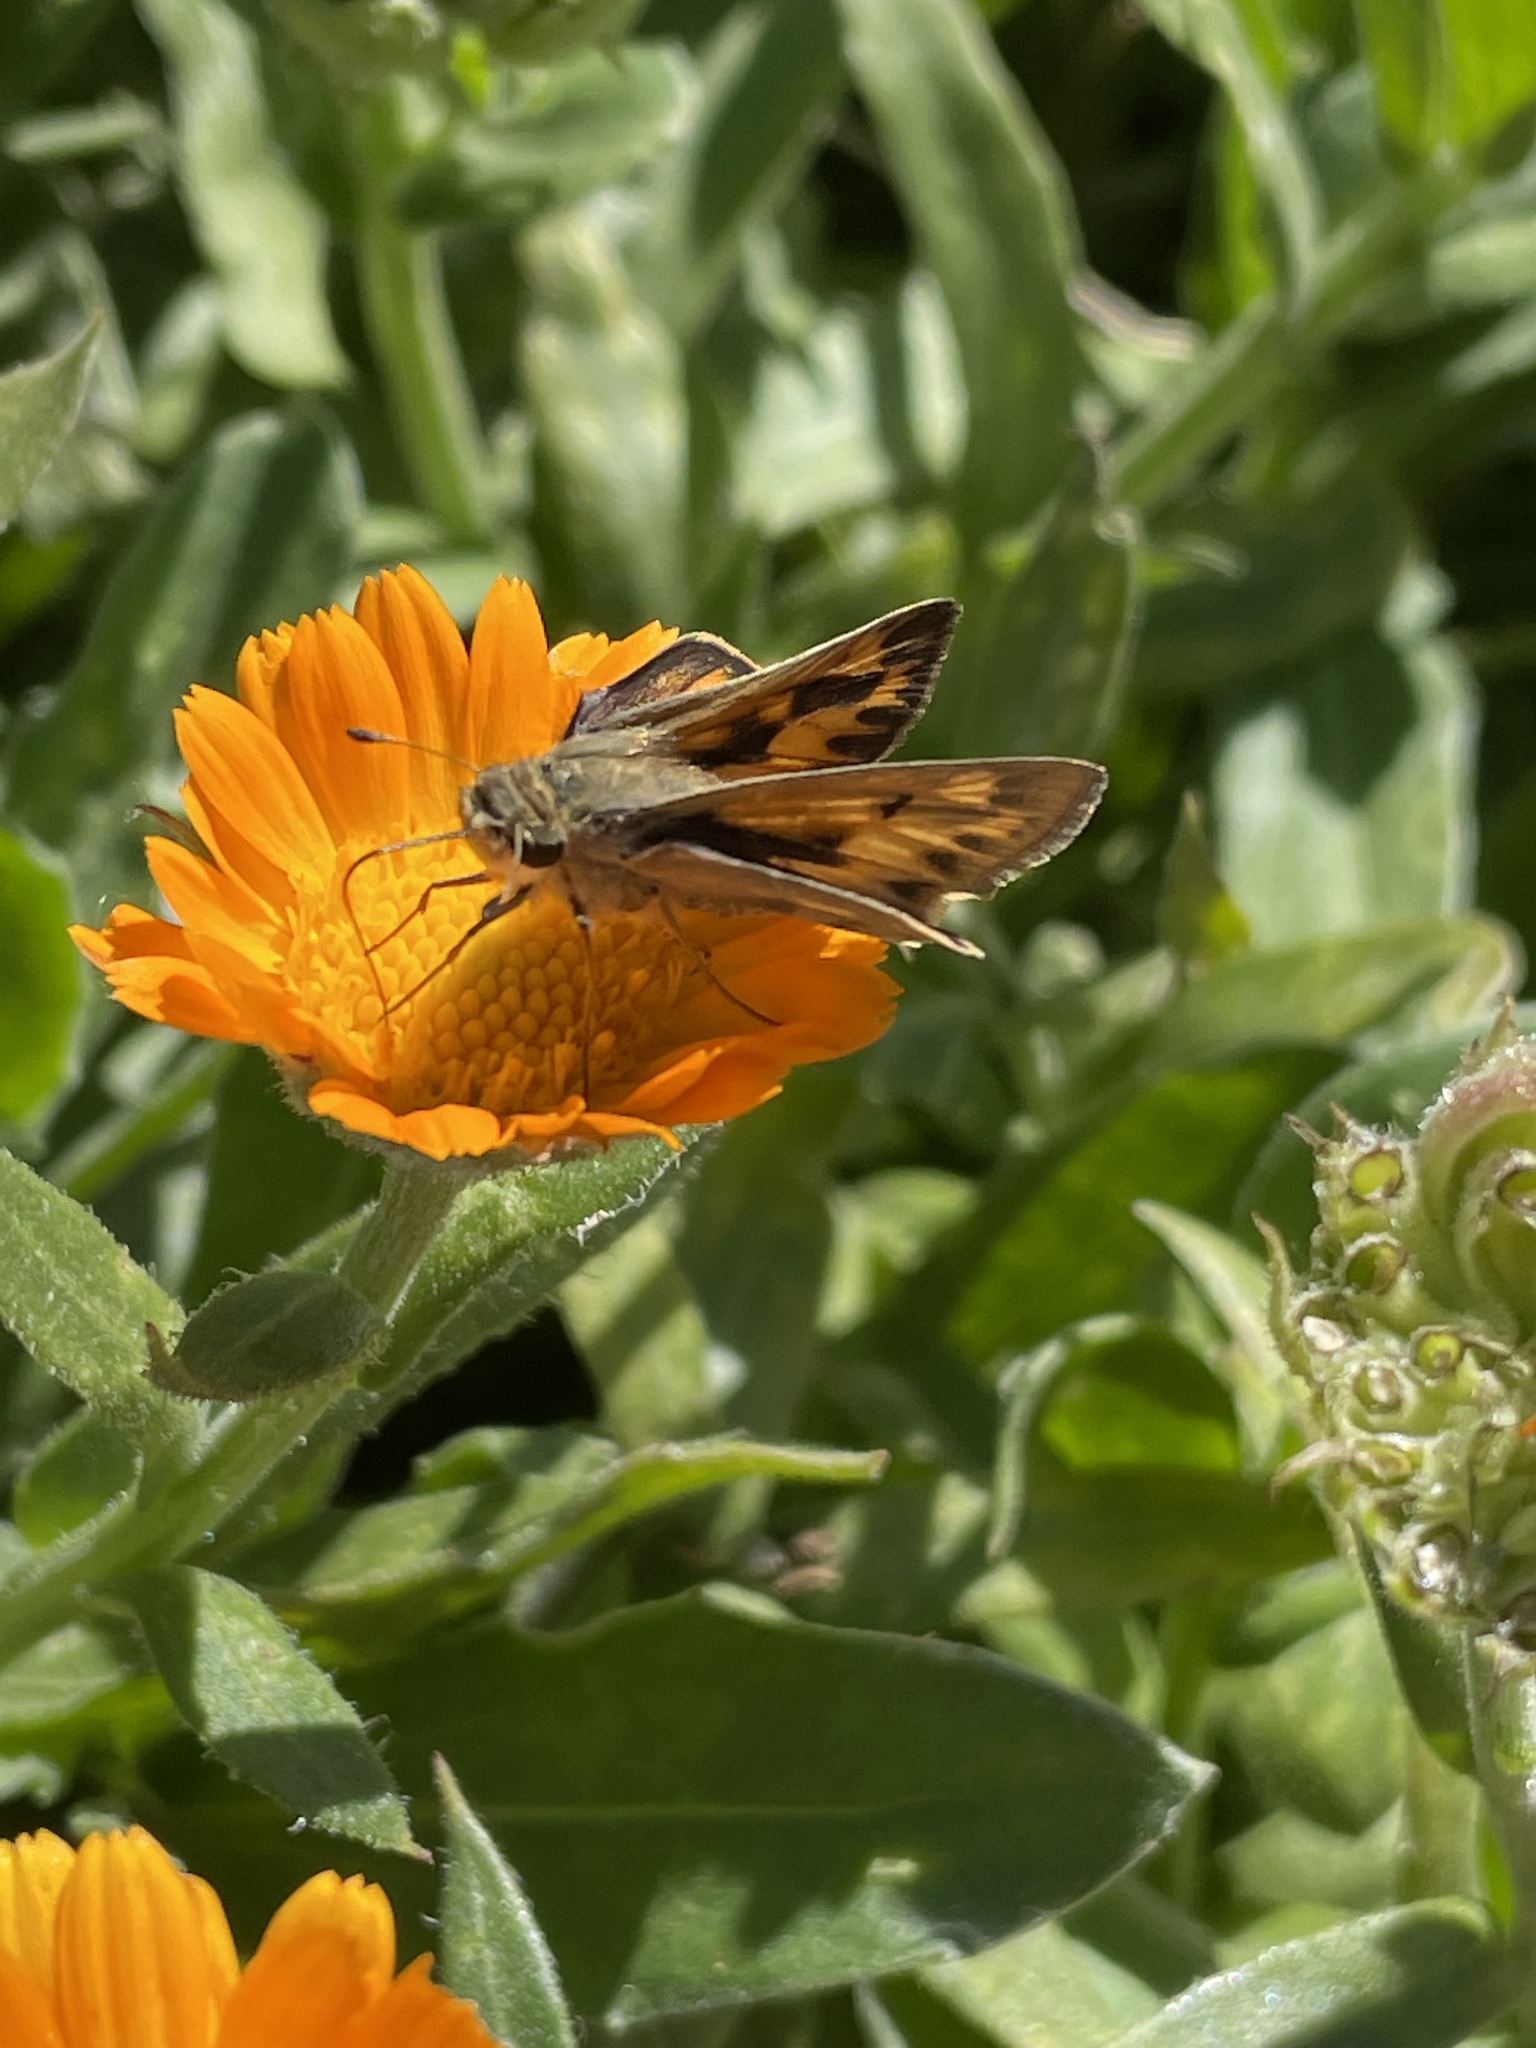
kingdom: Animalia
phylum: Arthropoda
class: Insecta
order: Lepidoptera
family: Hesperiidae
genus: Hylephila
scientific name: Hylephila phyleus
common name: Fiery skipper
